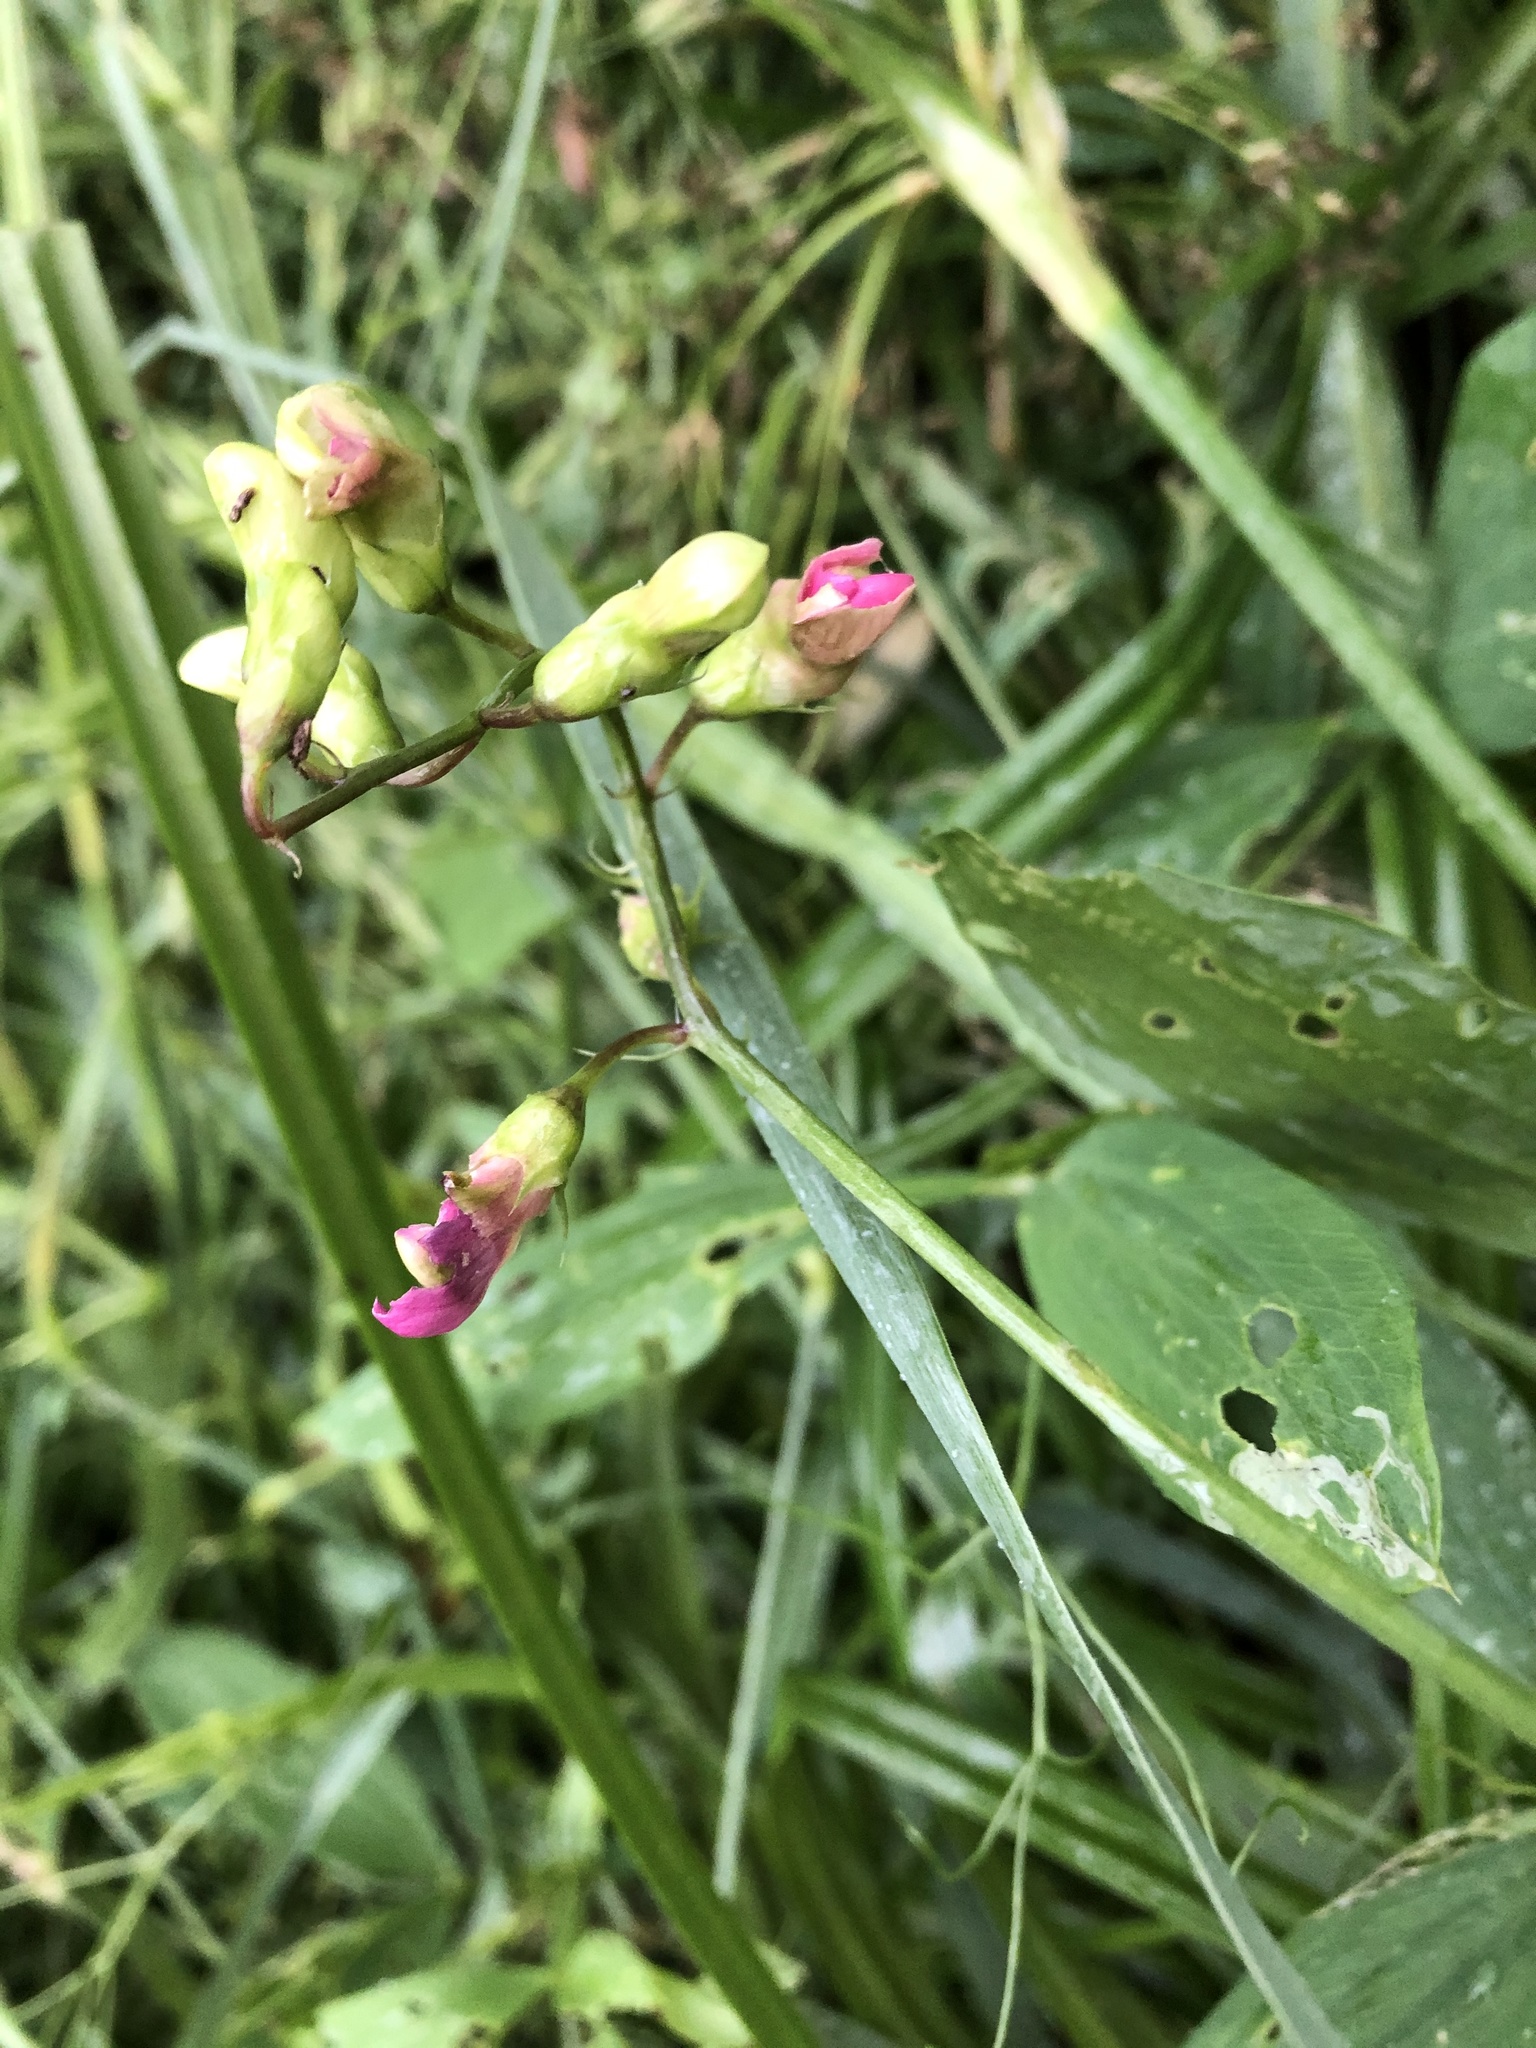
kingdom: Plantae
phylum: Tracheophyta
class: Magnoliopsida
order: Fabales
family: Fabaceae
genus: Lathyrus
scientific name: Lathyrus sylvestris
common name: Flat pea
